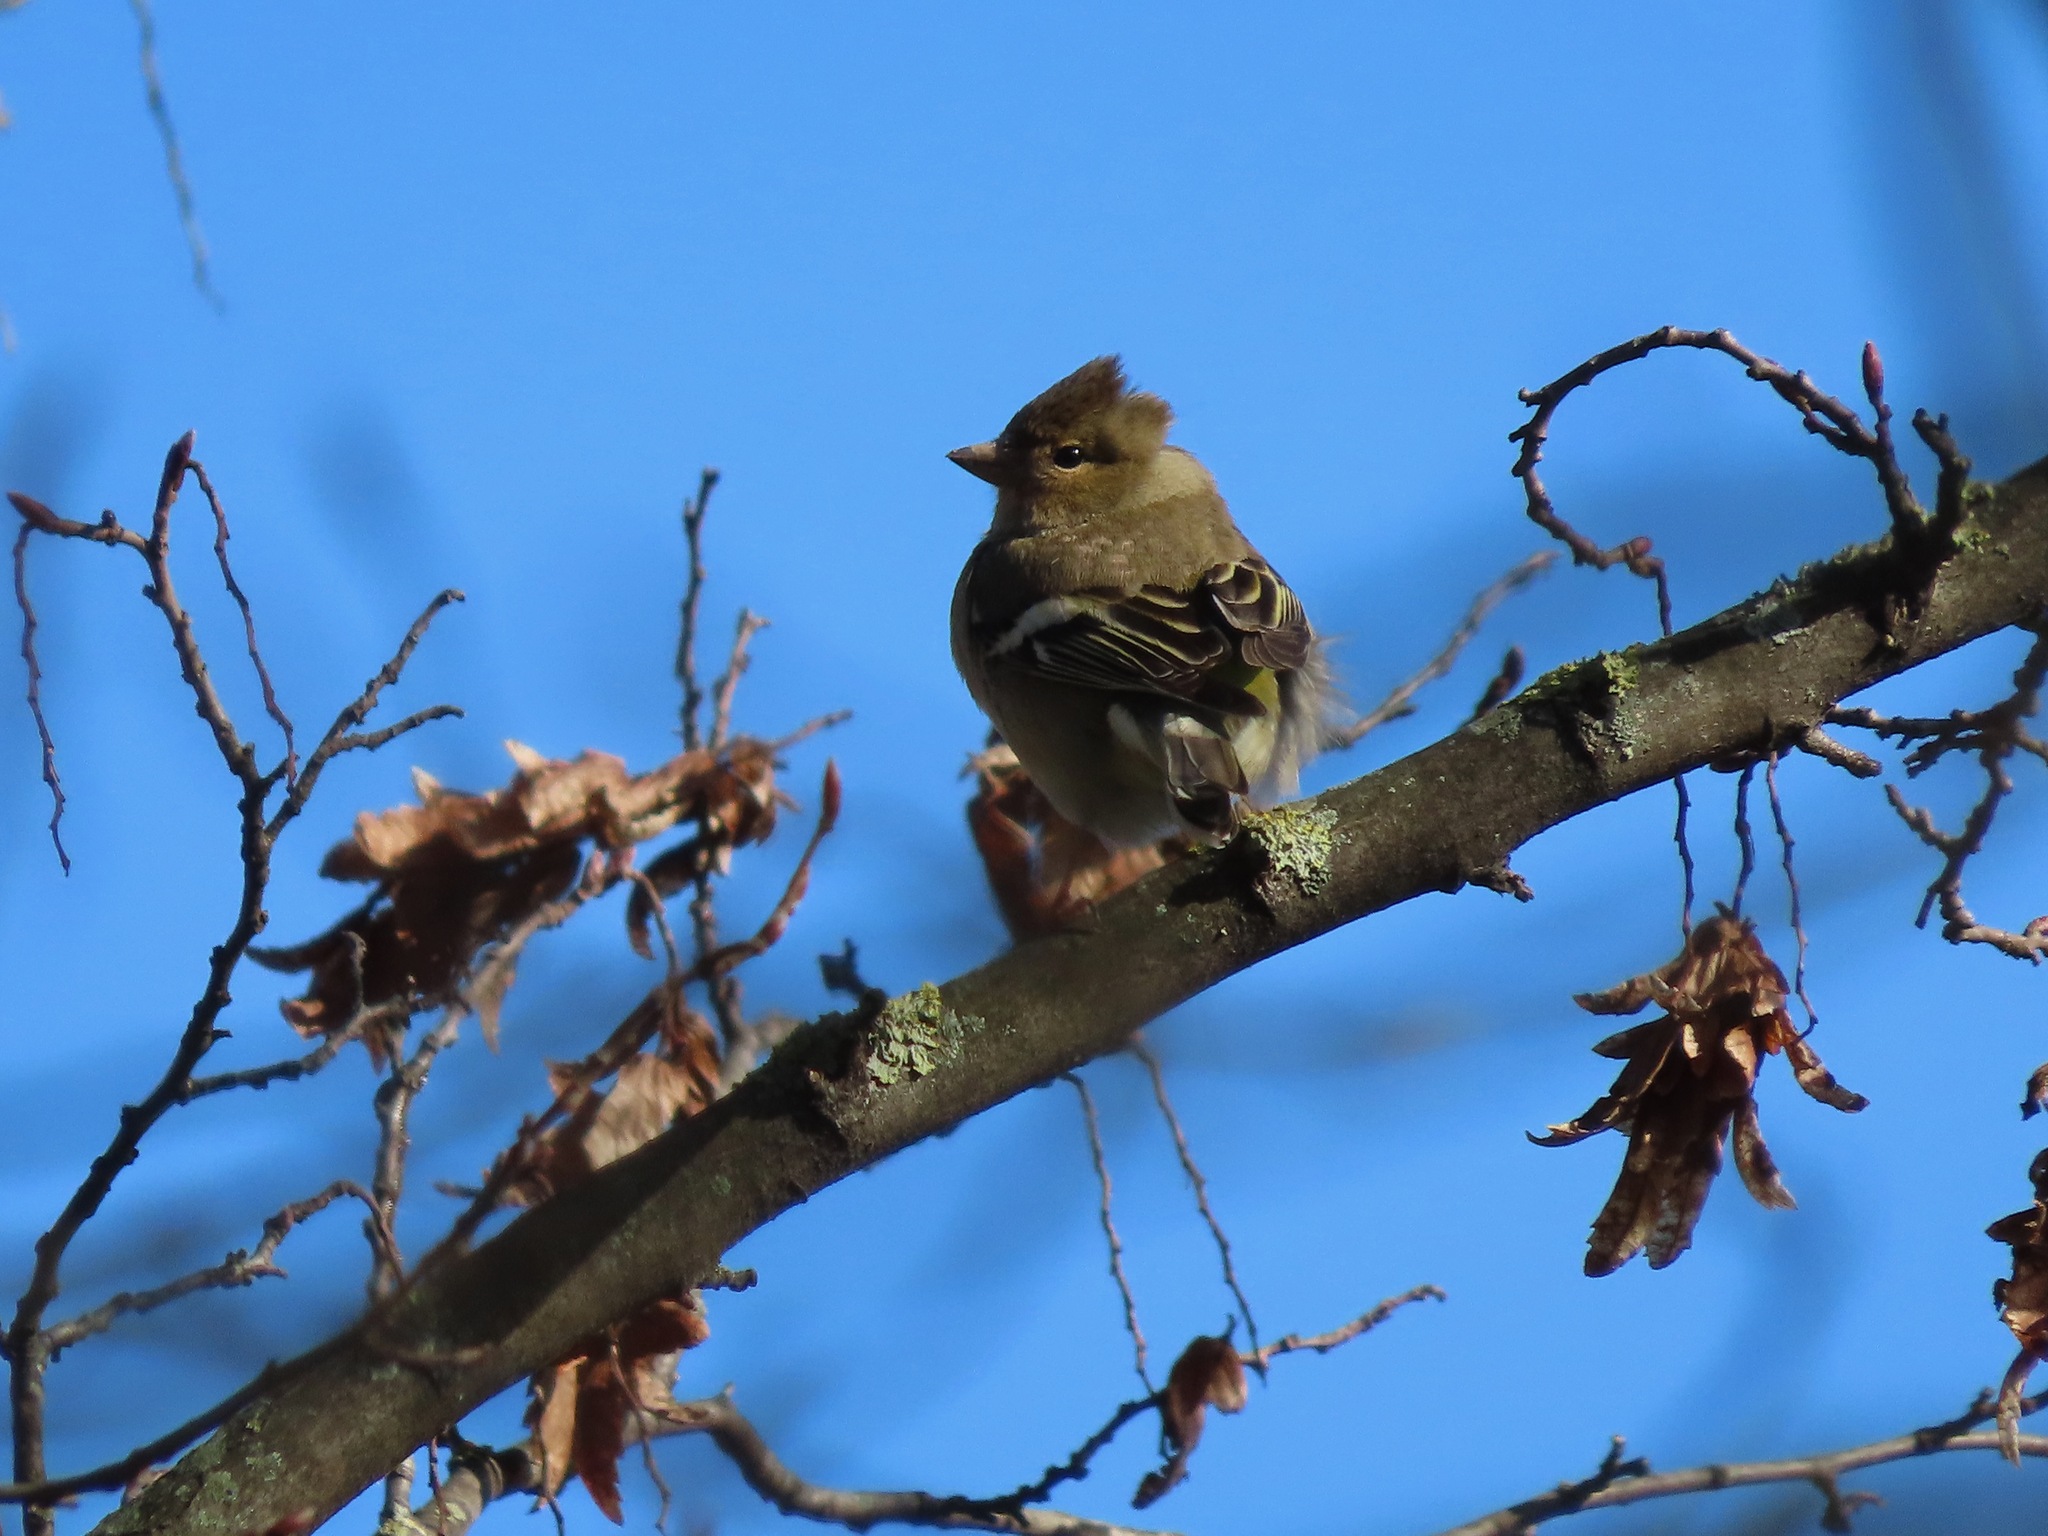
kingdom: Animalia
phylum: Chordata
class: Aves
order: Passeriformes
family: Fringillidae
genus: Fringilla
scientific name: Fringilla coelebs
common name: Common chaffinch
